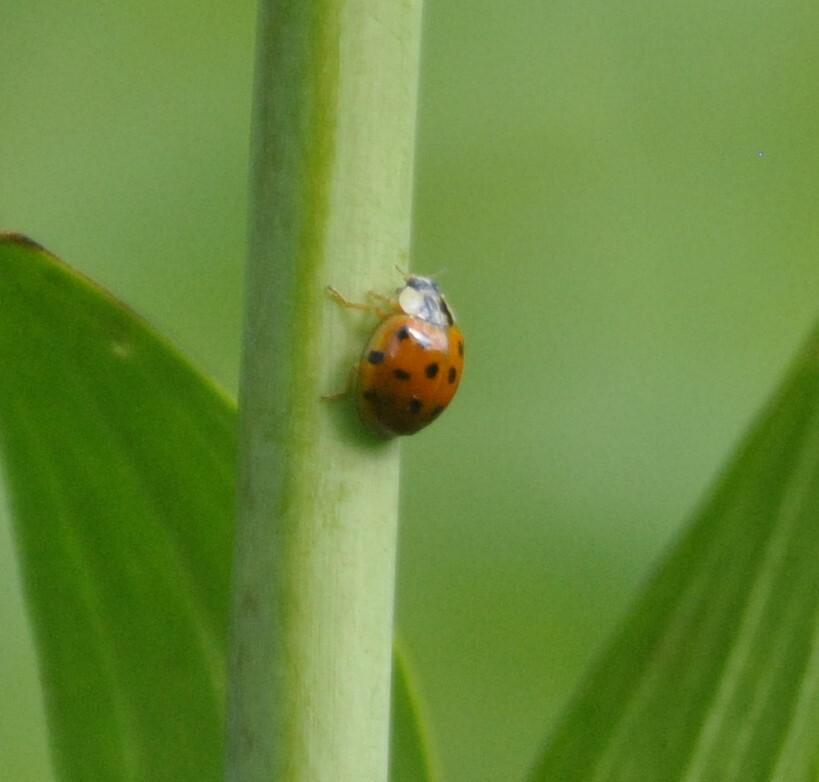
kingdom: Animalia
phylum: Arthropoda
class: Insecta
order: Coleoptera
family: Coccinellidae
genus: Harmonia
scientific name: Harmonia axyridis
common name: Harlequin ladybird
